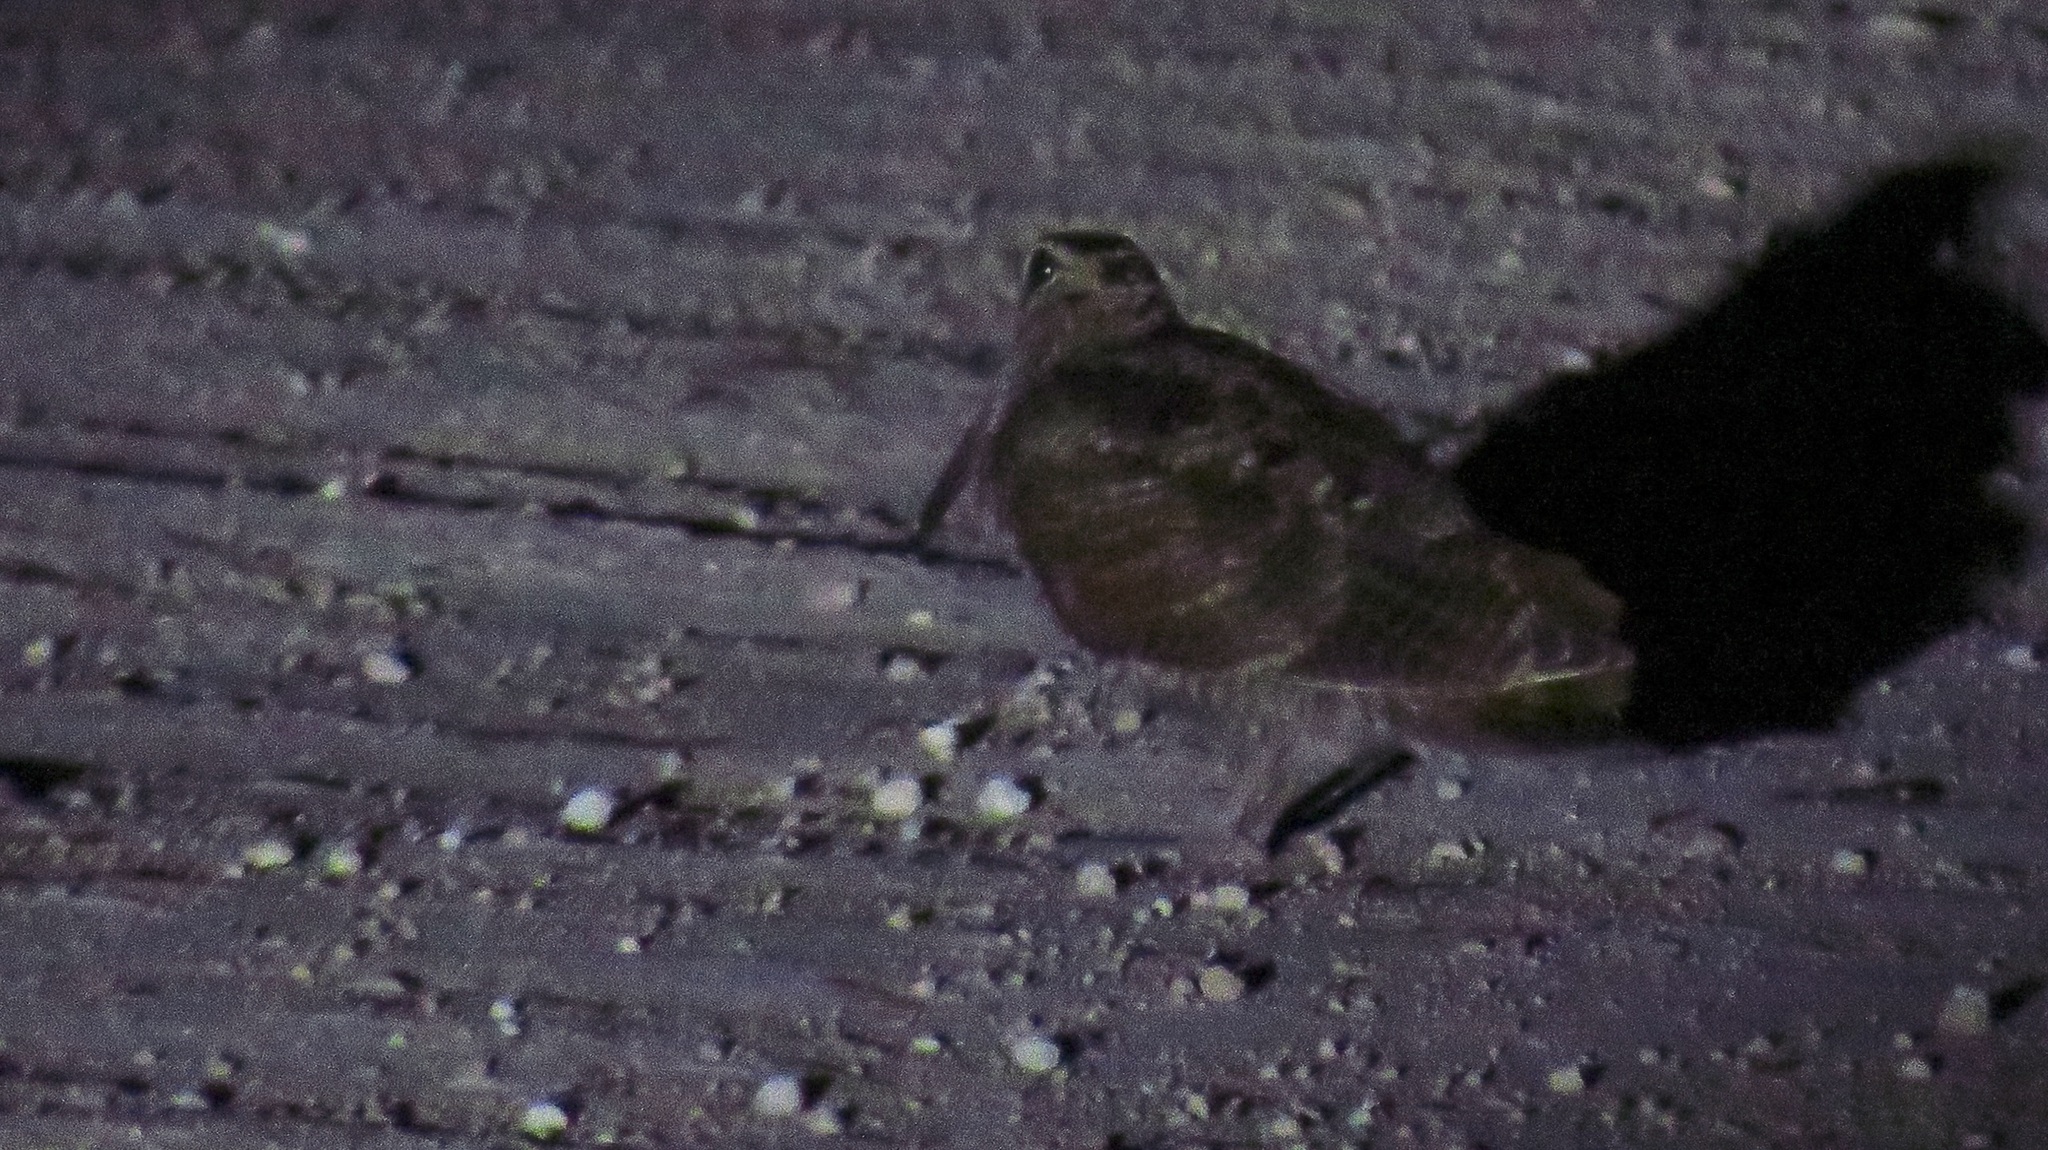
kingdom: Animalia
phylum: Chordata
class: Aves
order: Charadriiformes
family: Scolopacidae
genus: Scolopax
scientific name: Scolopax rusticola
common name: Eurasian woodcock
